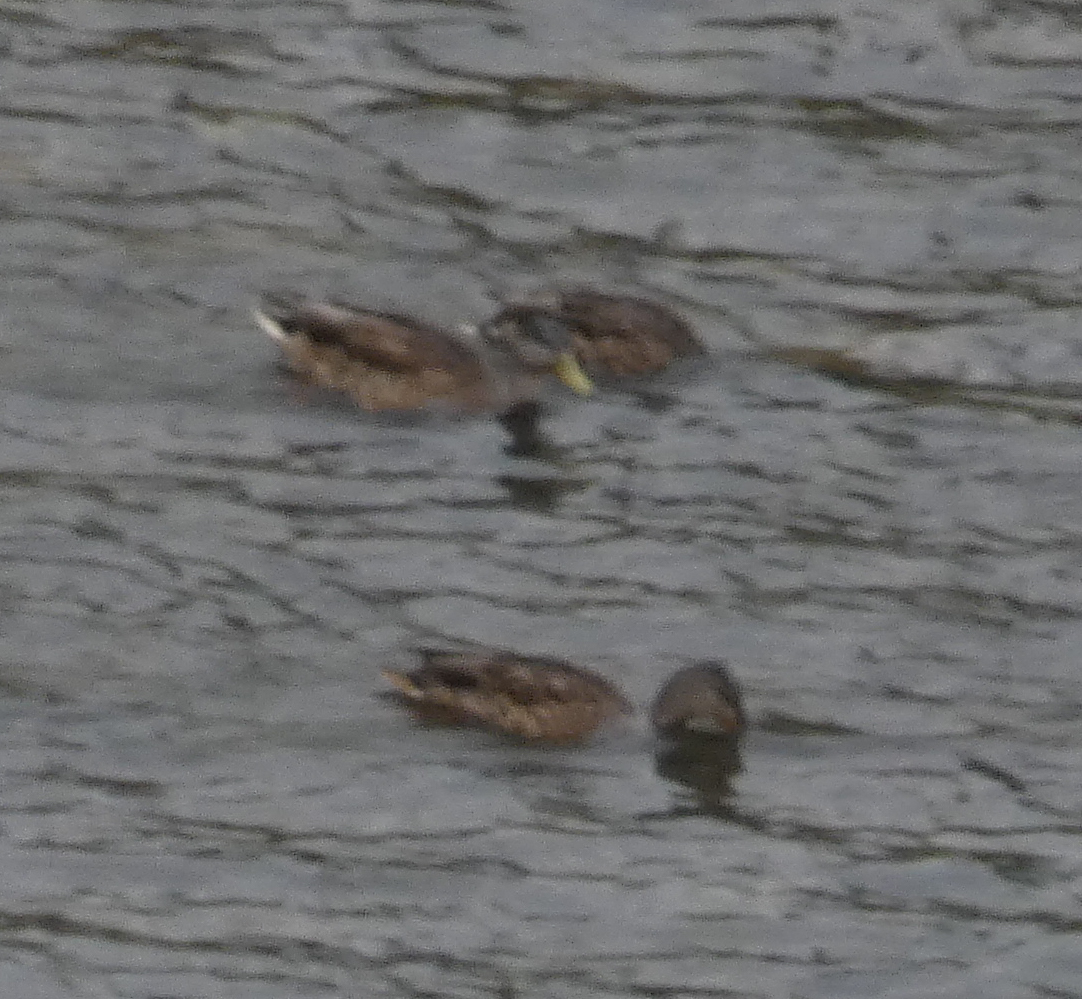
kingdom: Animalia
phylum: Chordata
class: Aves
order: Anseriformes
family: Anatidae
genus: Anas
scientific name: Anas platyrhynchos
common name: Mallard
